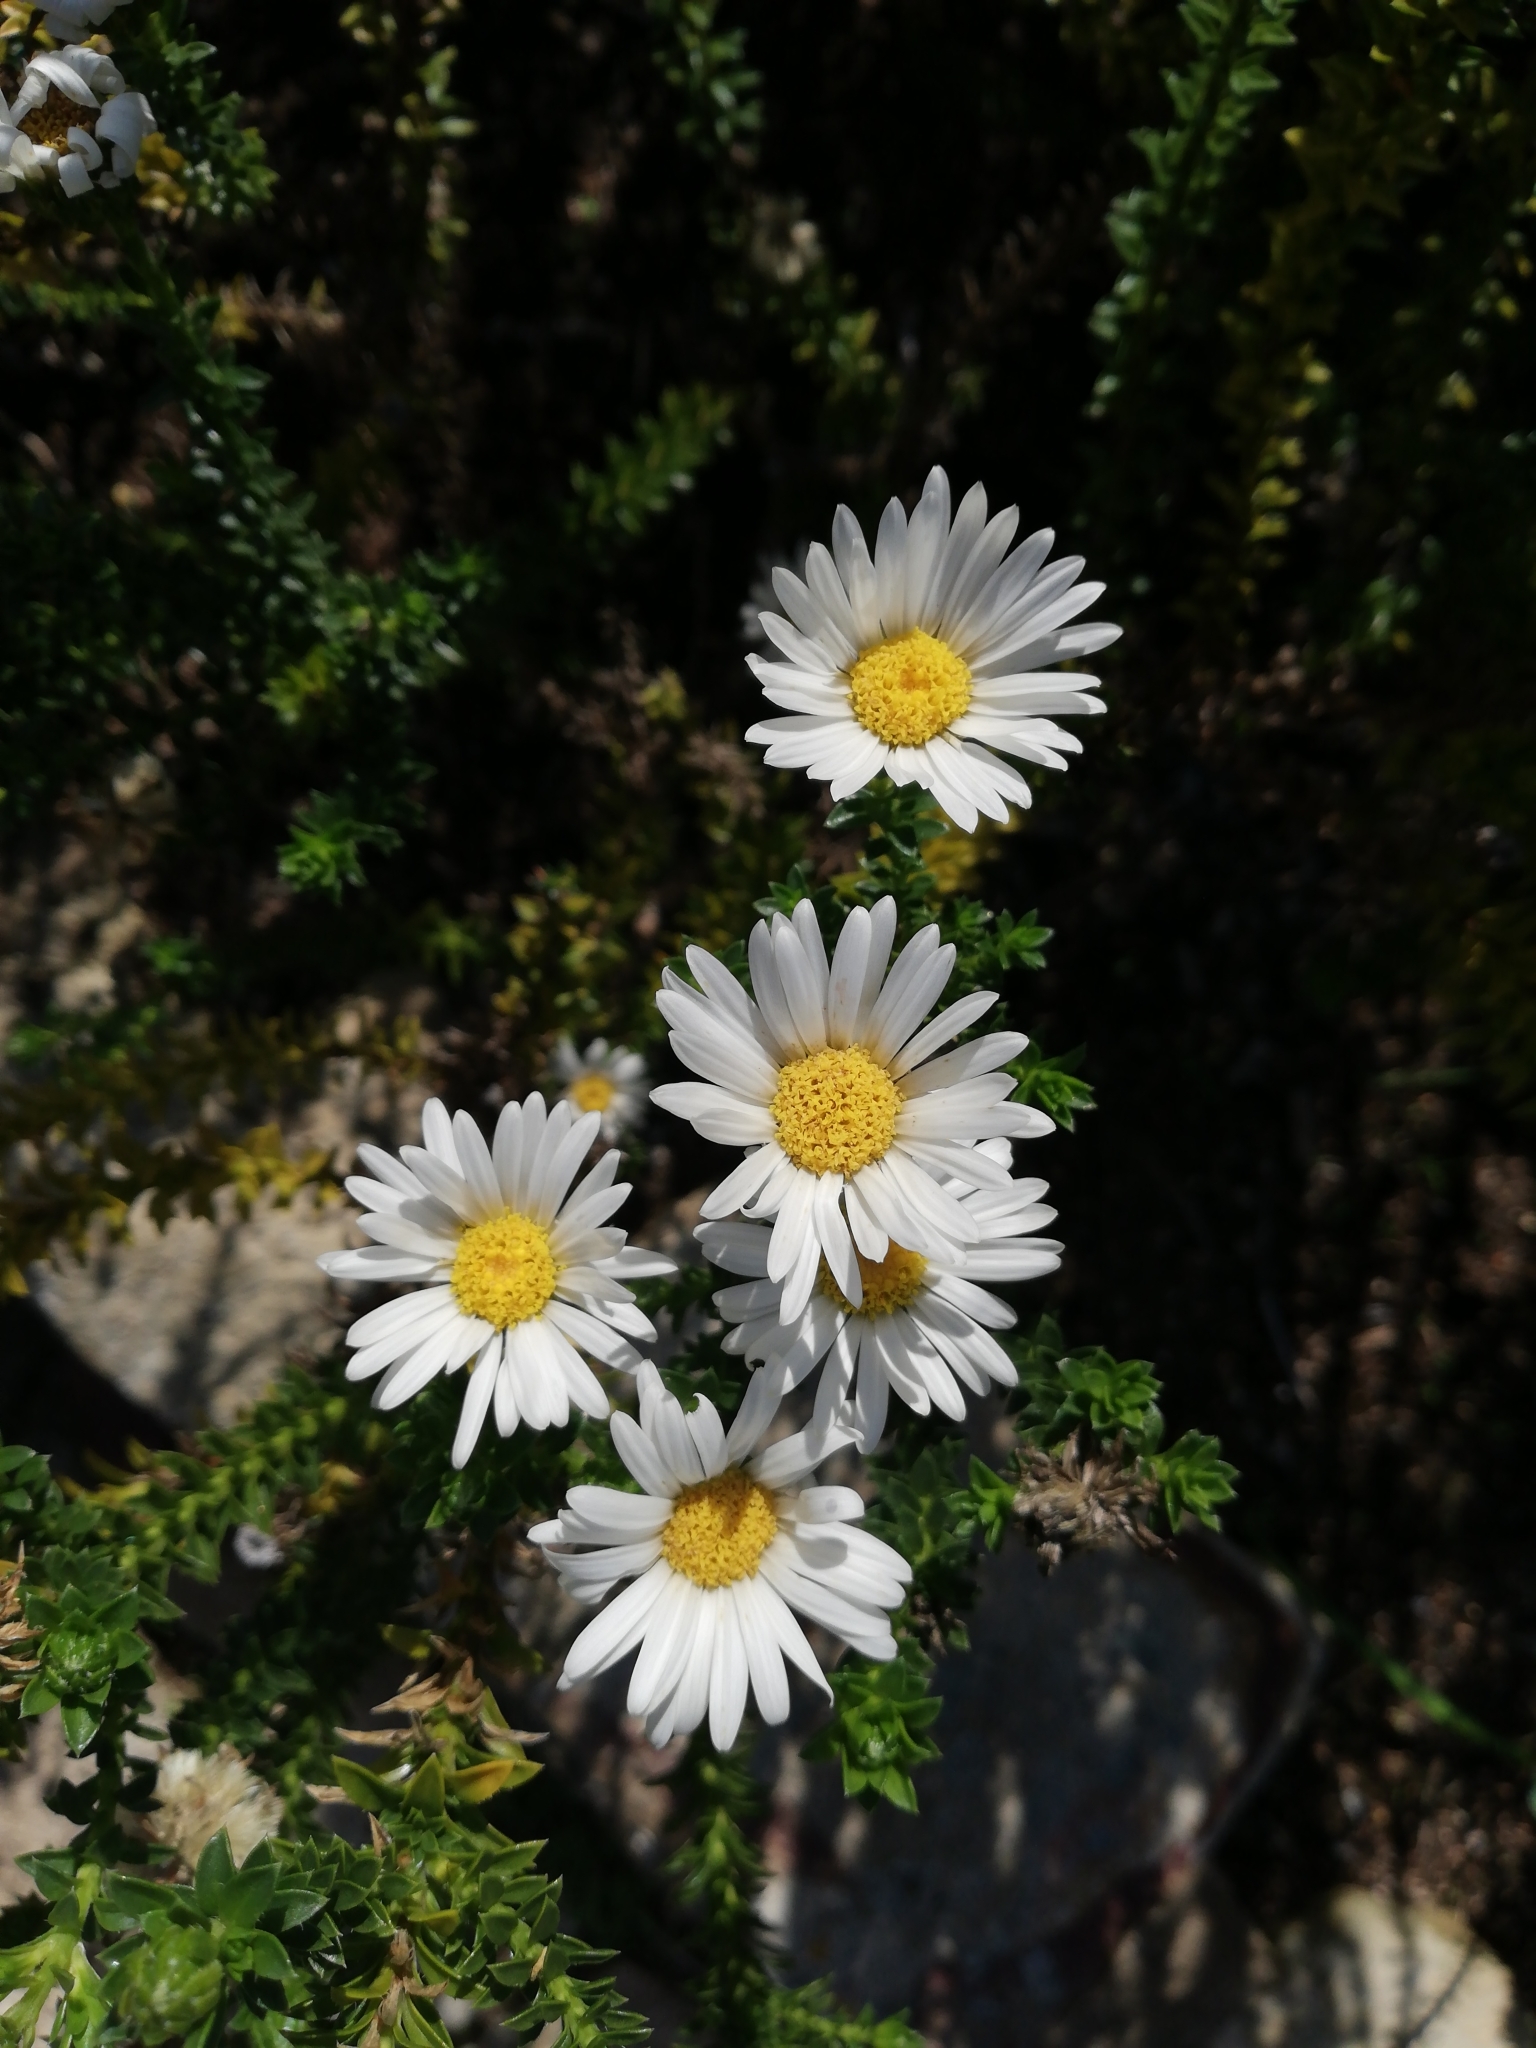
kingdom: Plantae
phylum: Tracheophyta
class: Magnoliopsida
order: Asterales
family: Asteraceae
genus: Felicia
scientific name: Felicia echinata
